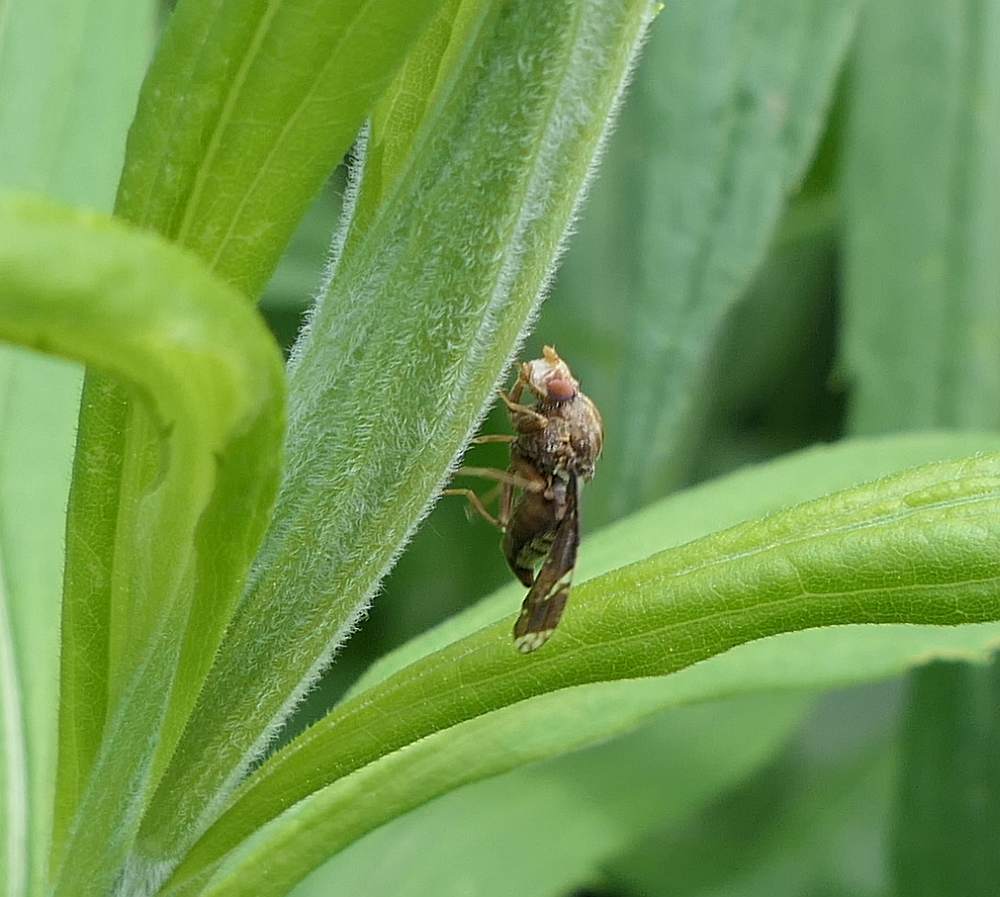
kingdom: Animalia
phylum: Arthropoda
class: Insecta
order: Diptera
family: Tephritidae
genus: Eurosta
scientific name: Eurosta solidaginis
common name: Goldenrod gall fly
